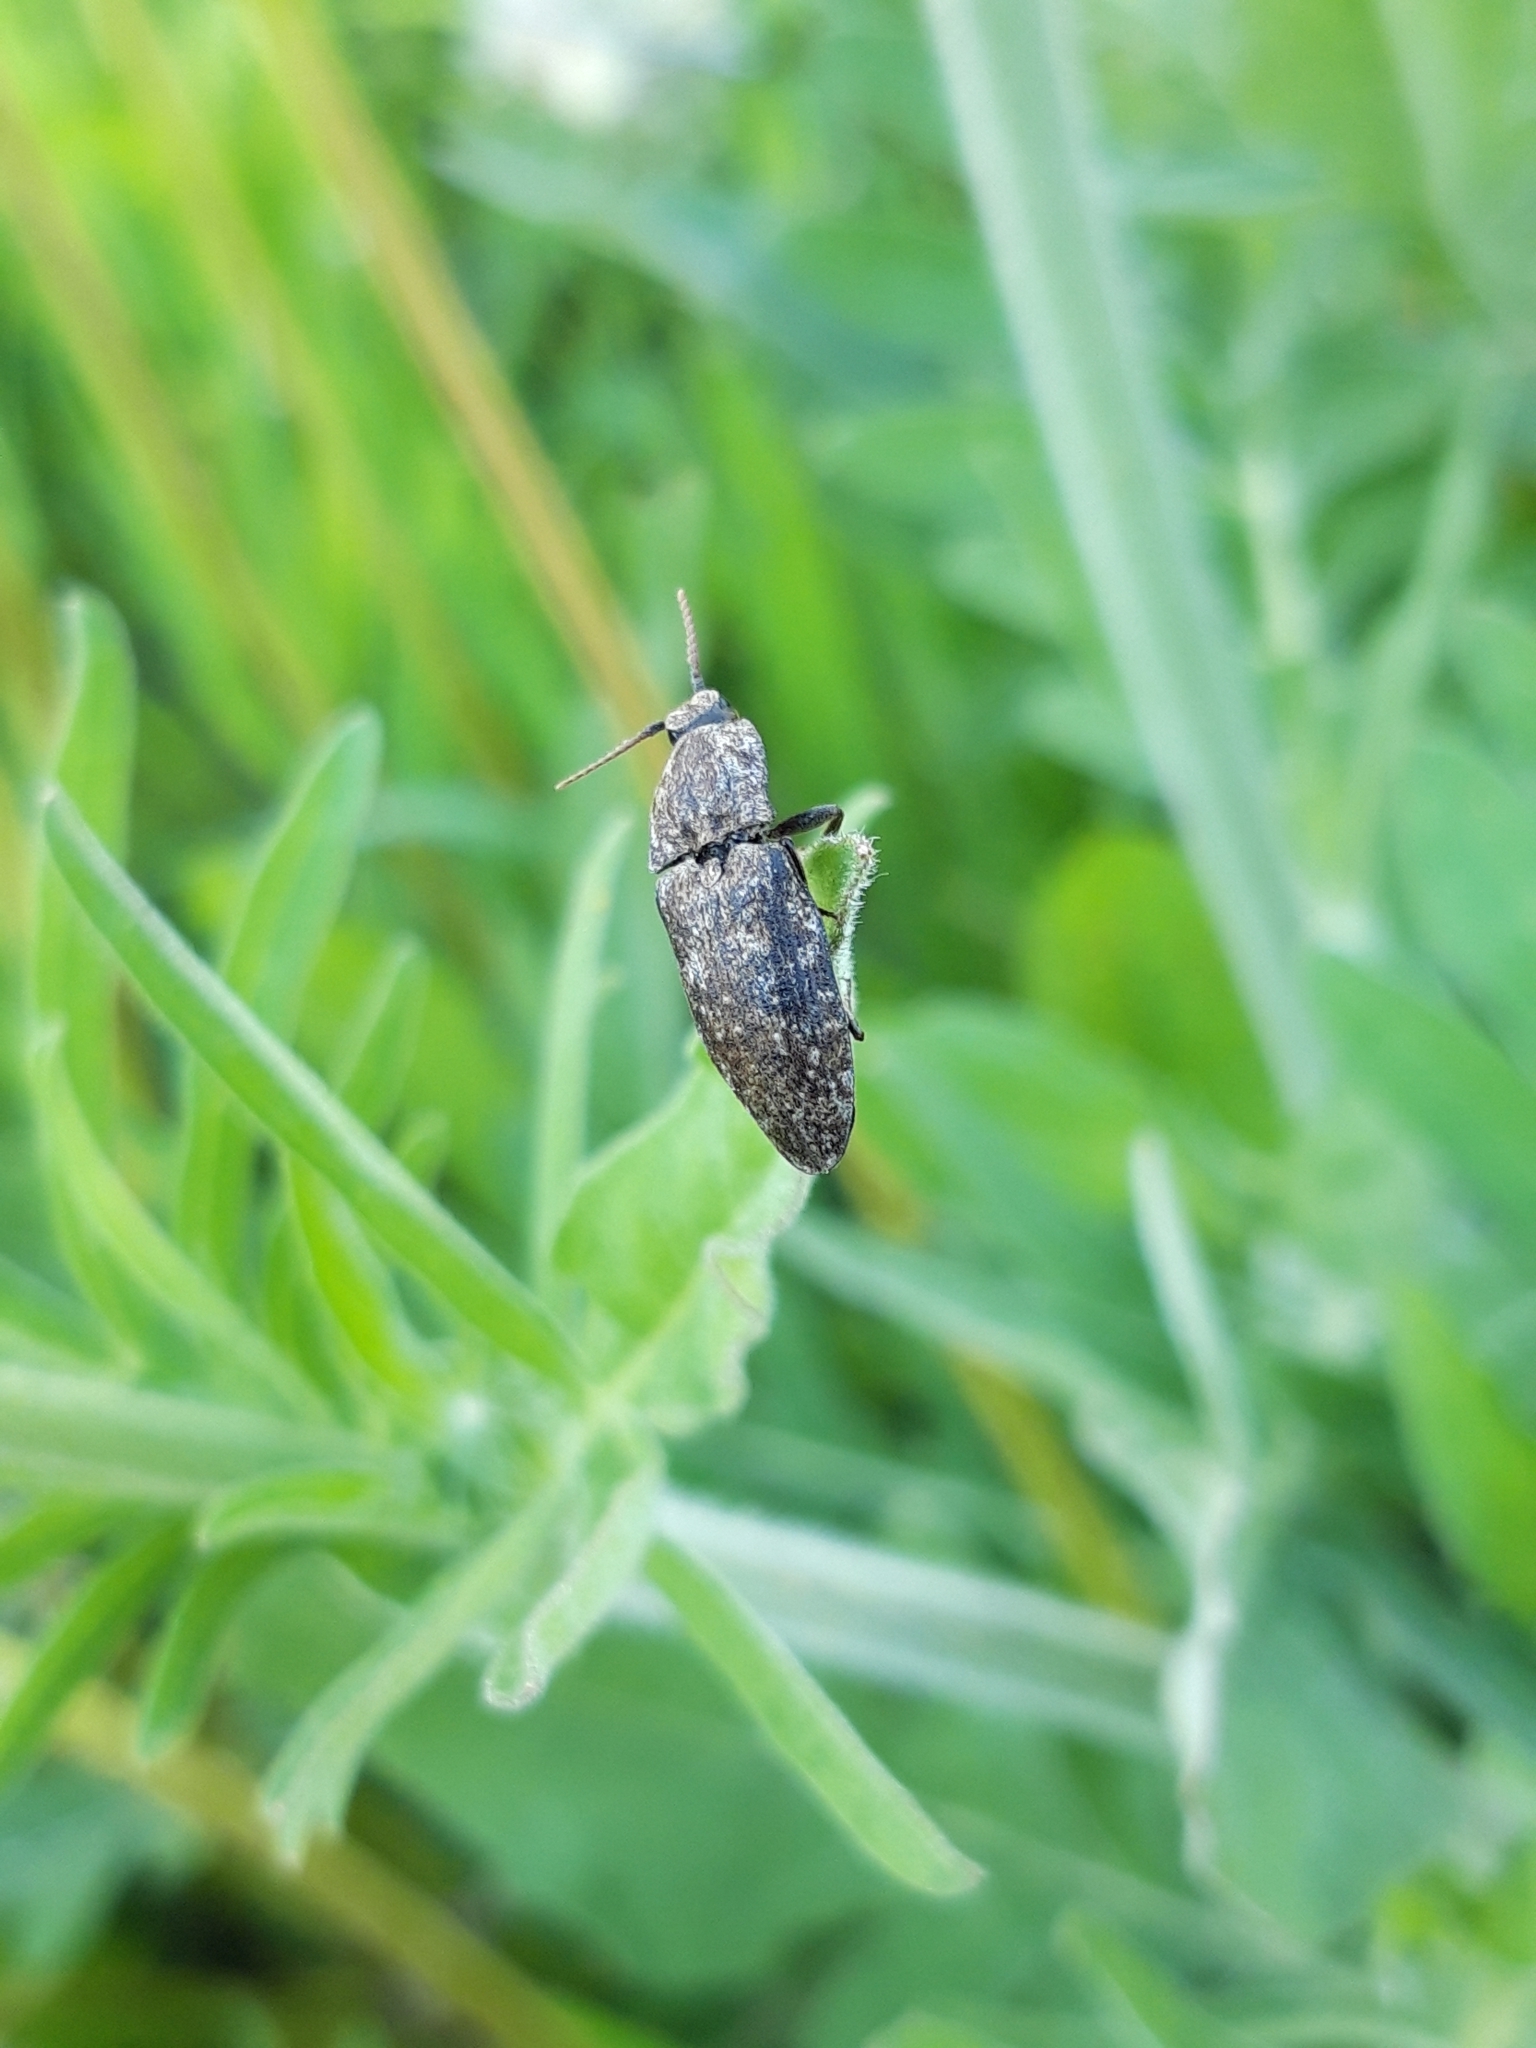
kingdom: Animalia
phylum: Arthropoda
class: Insecta
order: Coleoptera
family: Elateridae
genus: Agrypnus
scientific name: Agrypnus murinus
